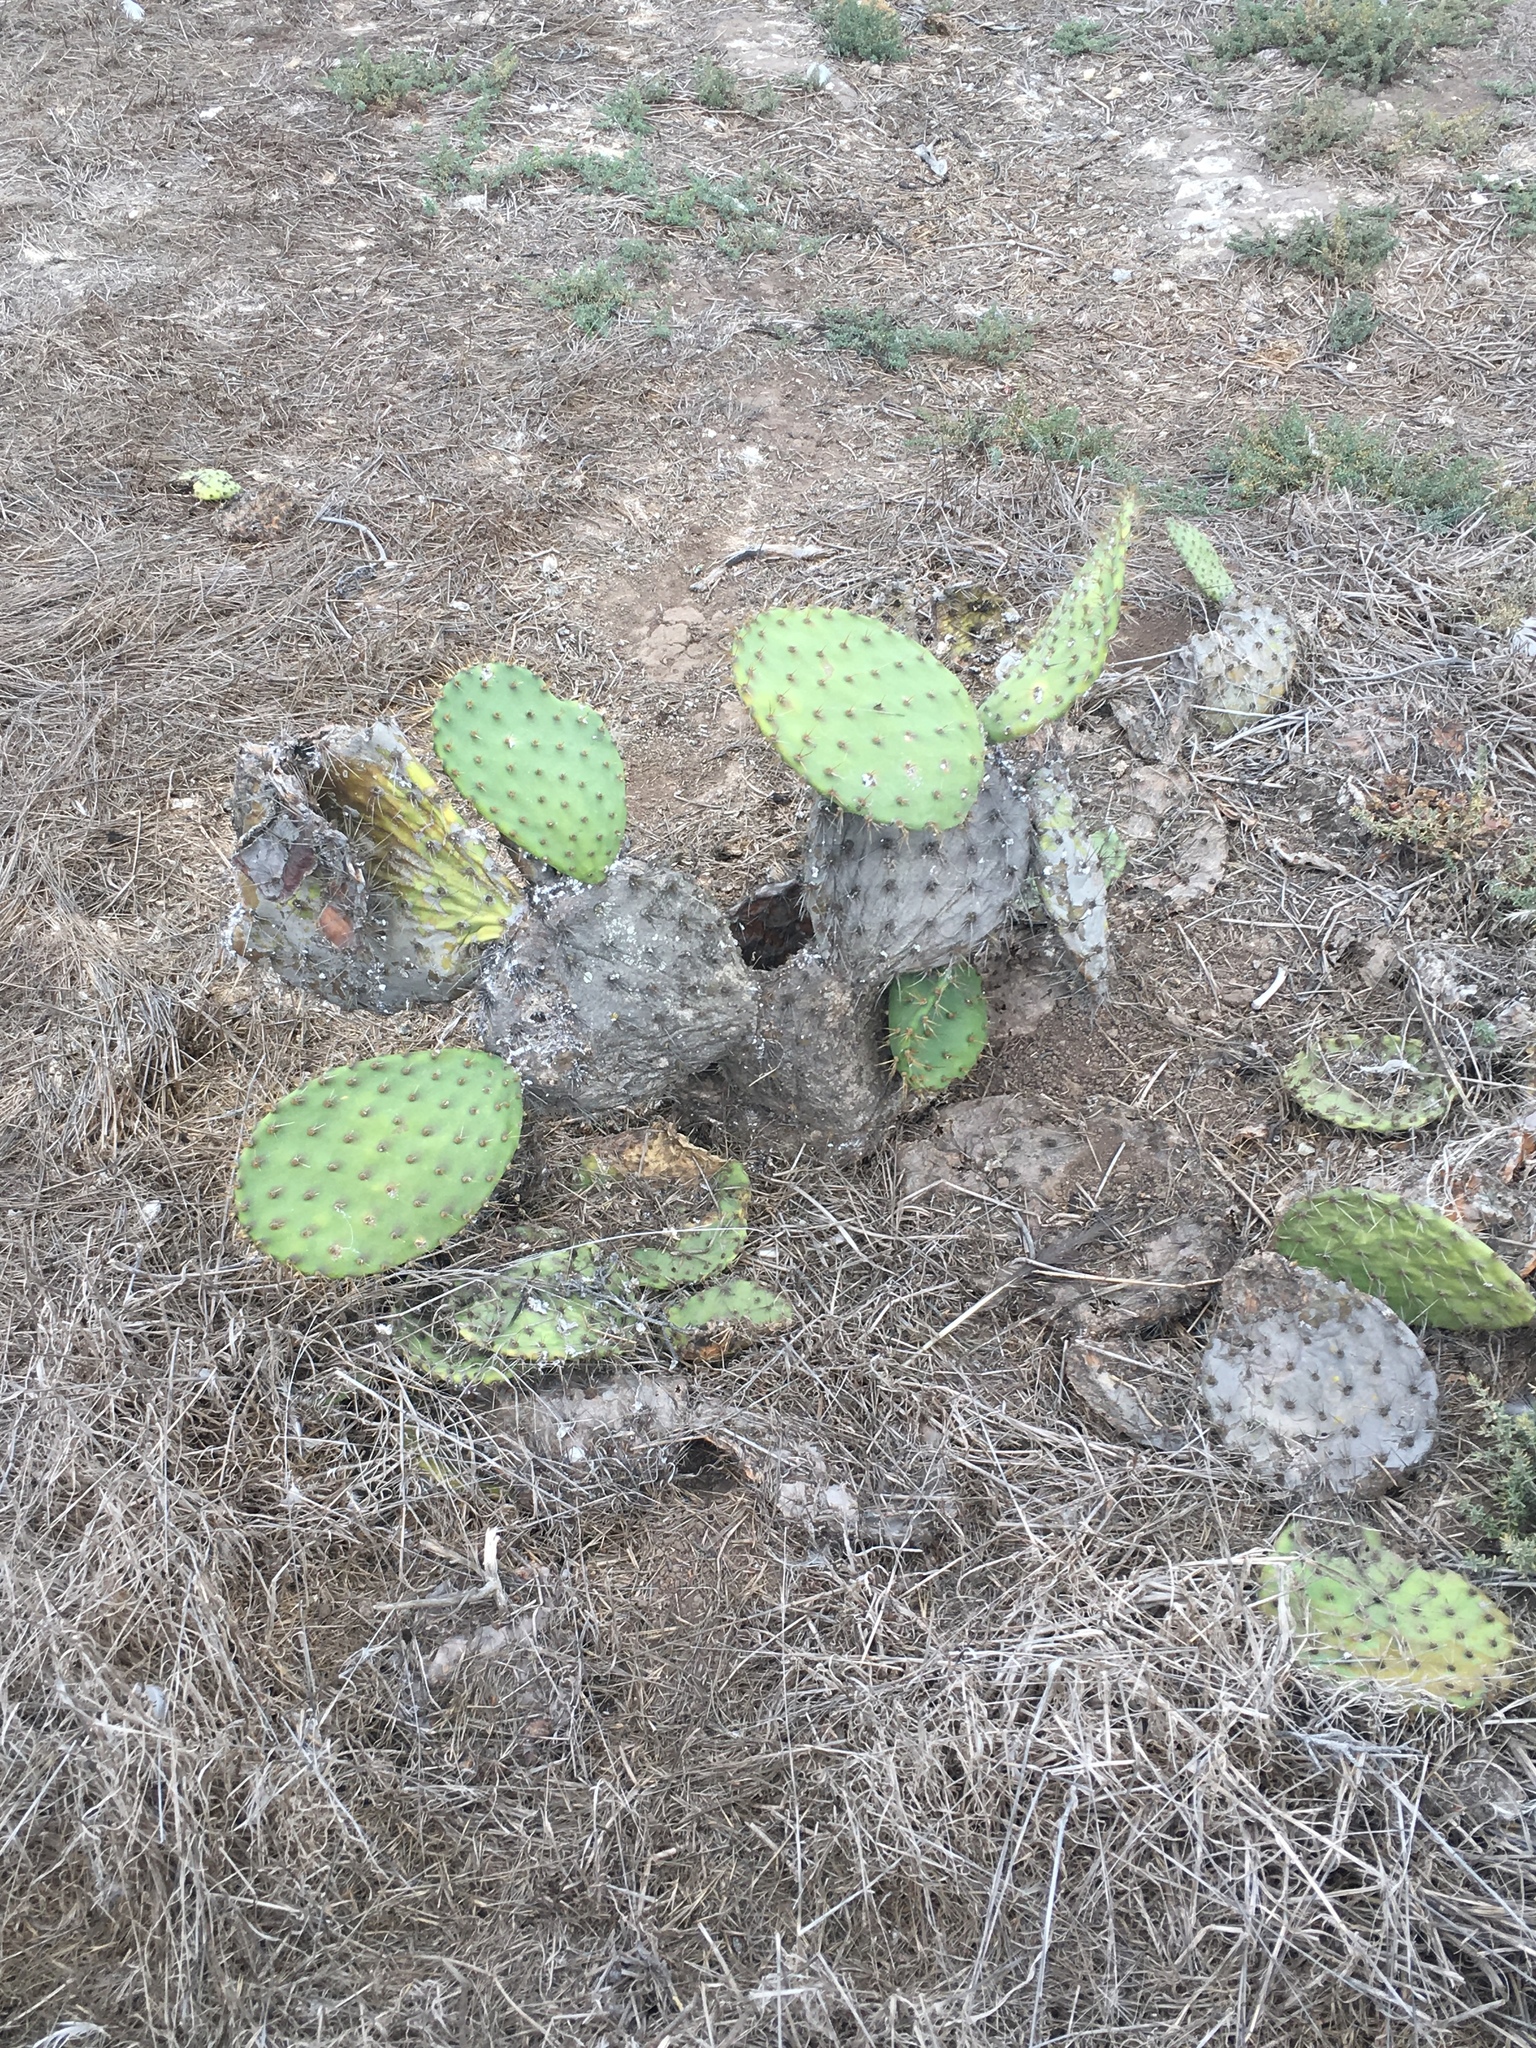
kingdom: Plantae
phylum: Tracheophyta
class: Magnoliopsida
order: Caryophyllales
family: Cactaceae
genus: Opuntia
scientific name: Opuntia oricola
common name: Chaparral prickly-pear
